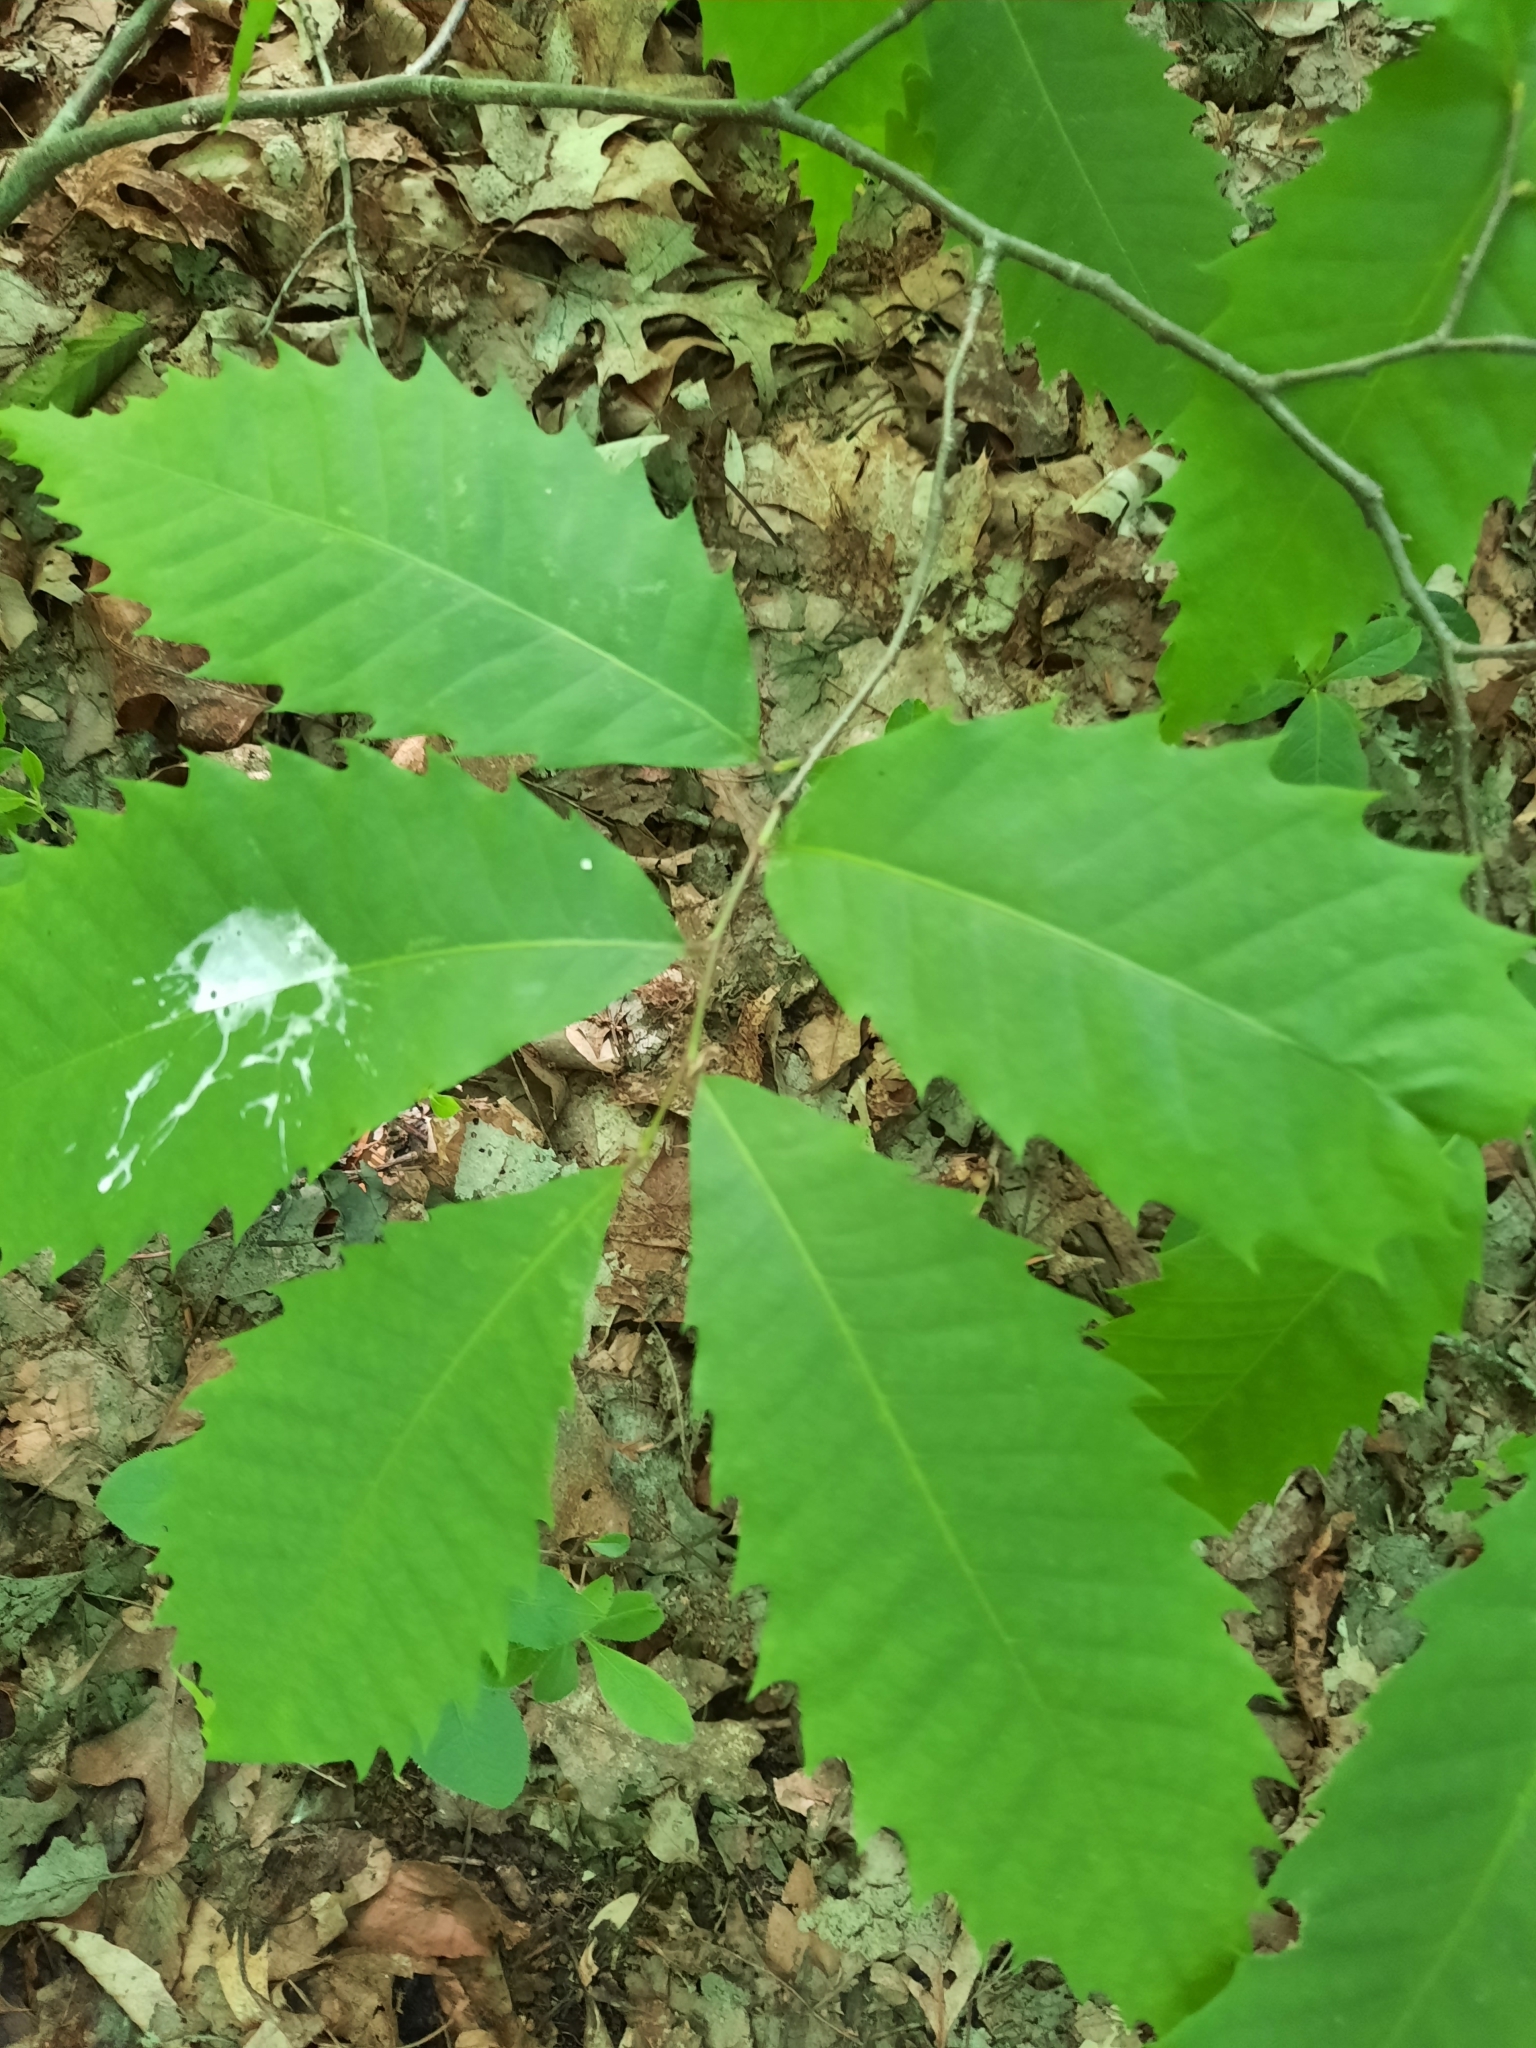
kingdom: Plantae
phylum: Tracheophyta
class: Magnoliopsida
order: Fagales
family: Fagaceae
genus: Castanea
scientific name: Castanea dentata
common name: American chestnut
